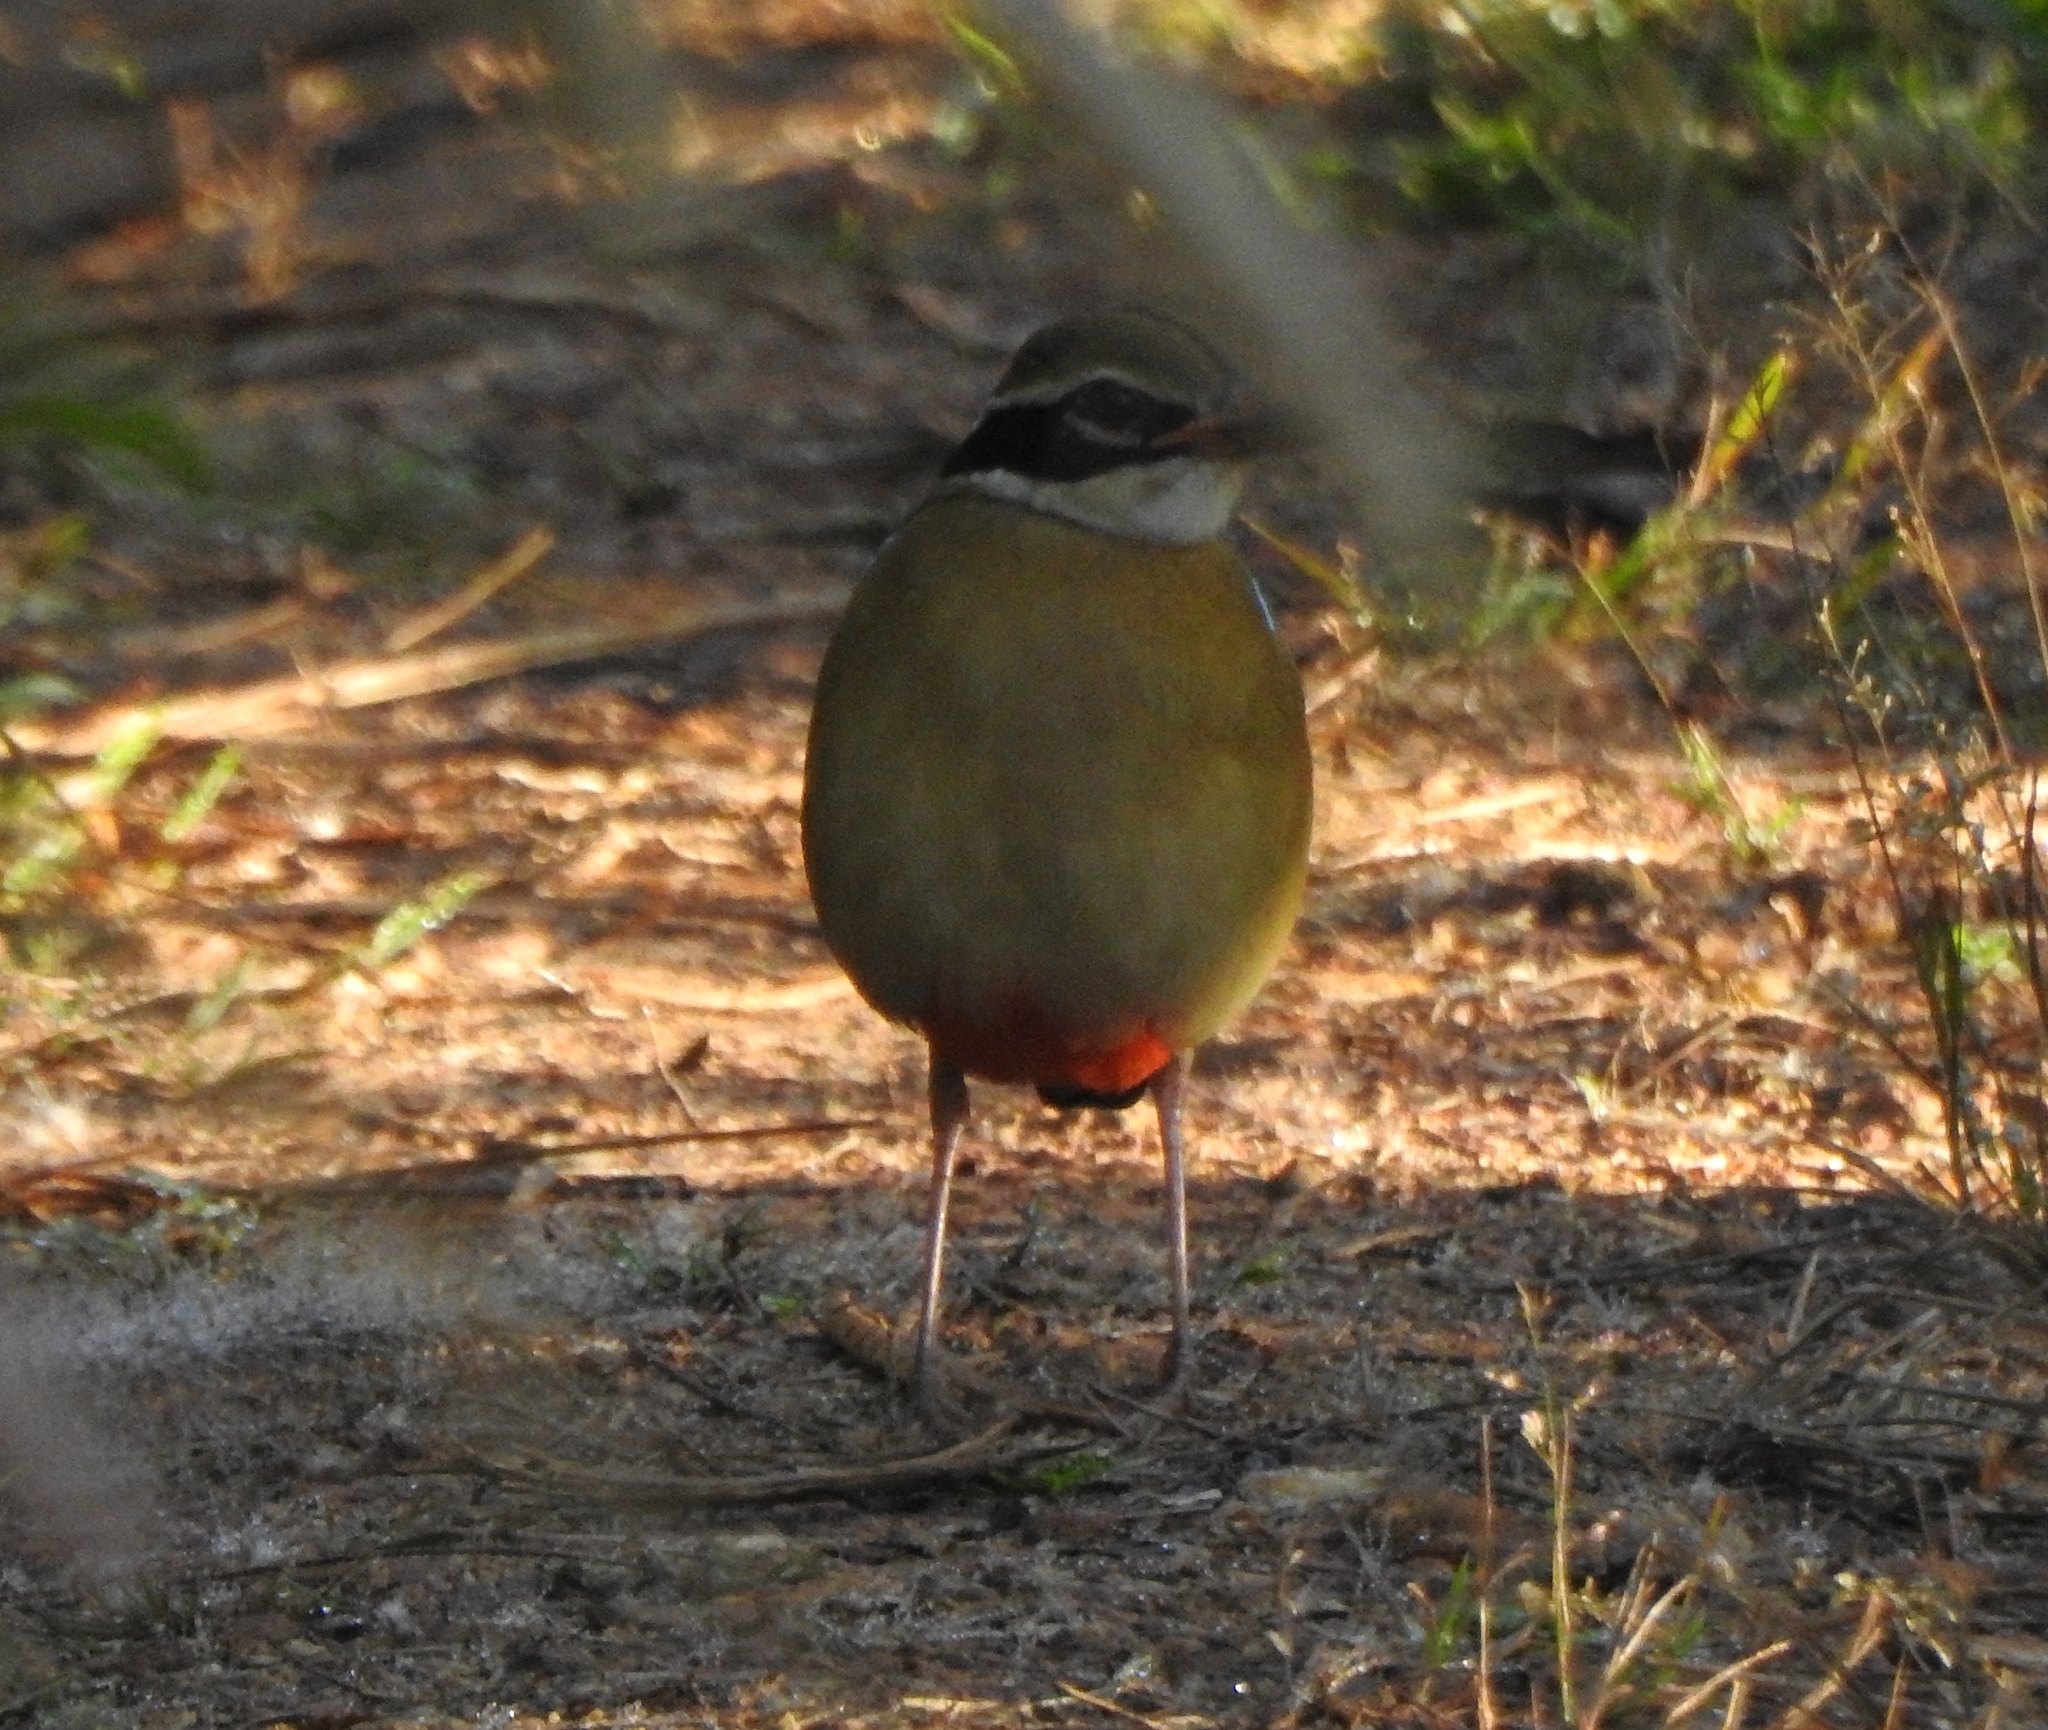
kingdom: Animalia
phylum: Chordata
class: Aves
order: Passeriformes
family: Pittidae
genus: Pitta
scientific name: Pitta brachyura
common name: Indian pitta
